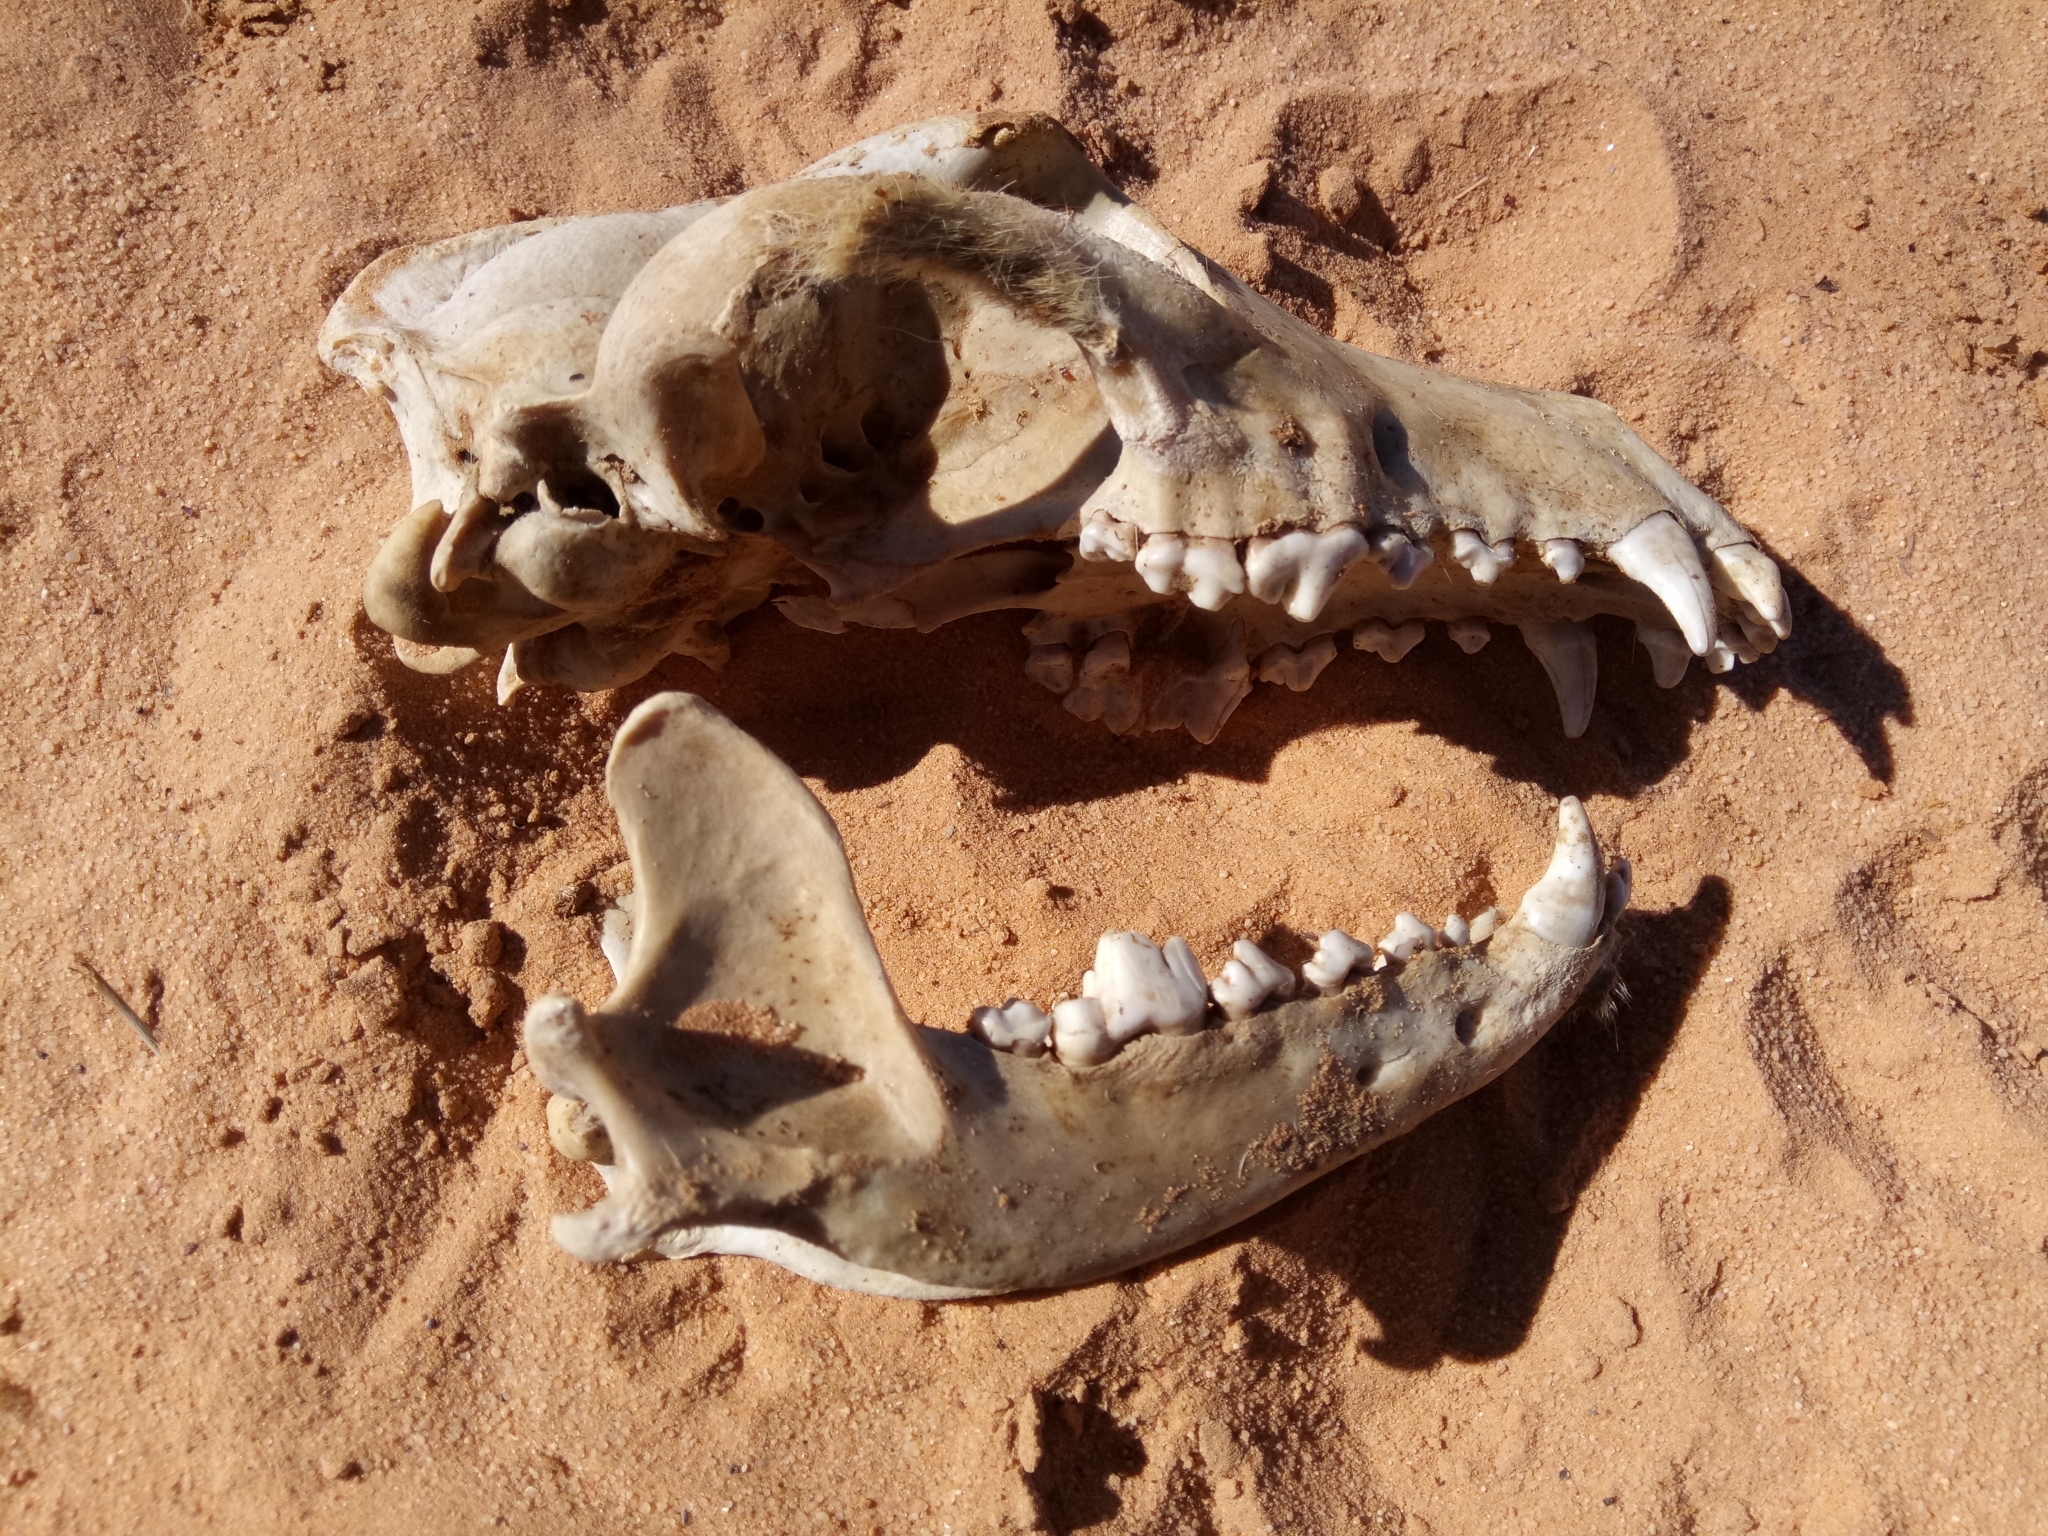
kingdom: Animalia
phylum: Chordata
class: Mammalia
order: Carnivora
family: Canidae
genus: Canis
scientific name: Canis lupus
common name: Gray wolf
